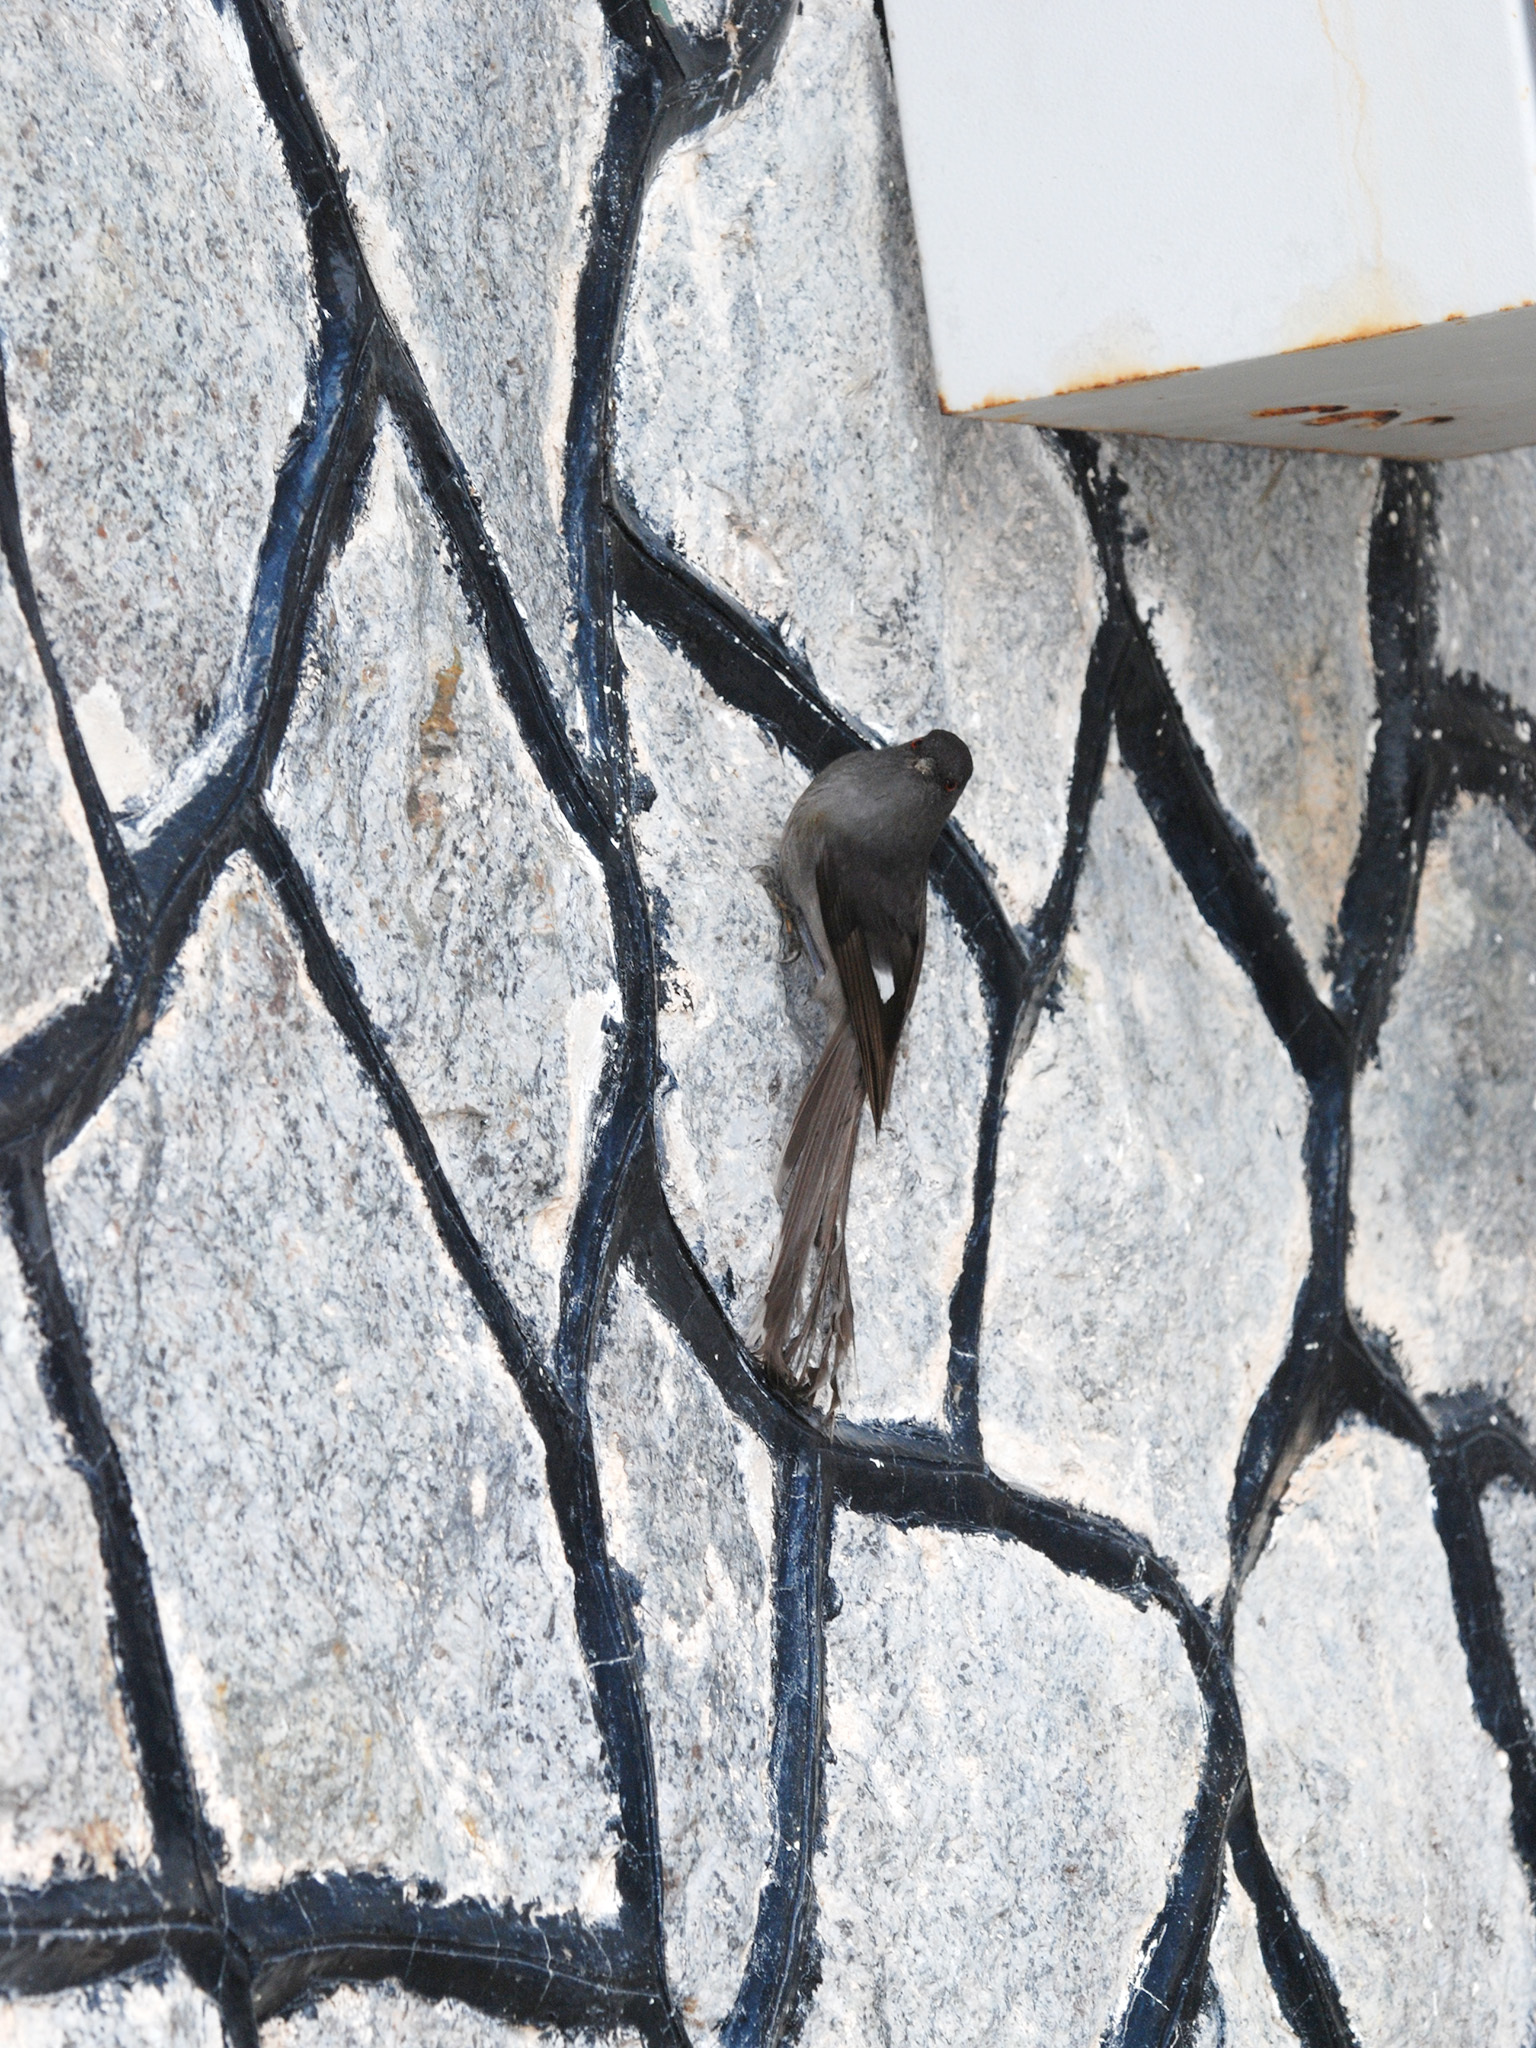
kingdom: Animalia
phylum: Chordata
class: Aves
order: Passeriformes
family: Leiothrichidae
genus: Heterophasia
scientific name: Heterophasia picaoides
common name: Long-tailed sibia
